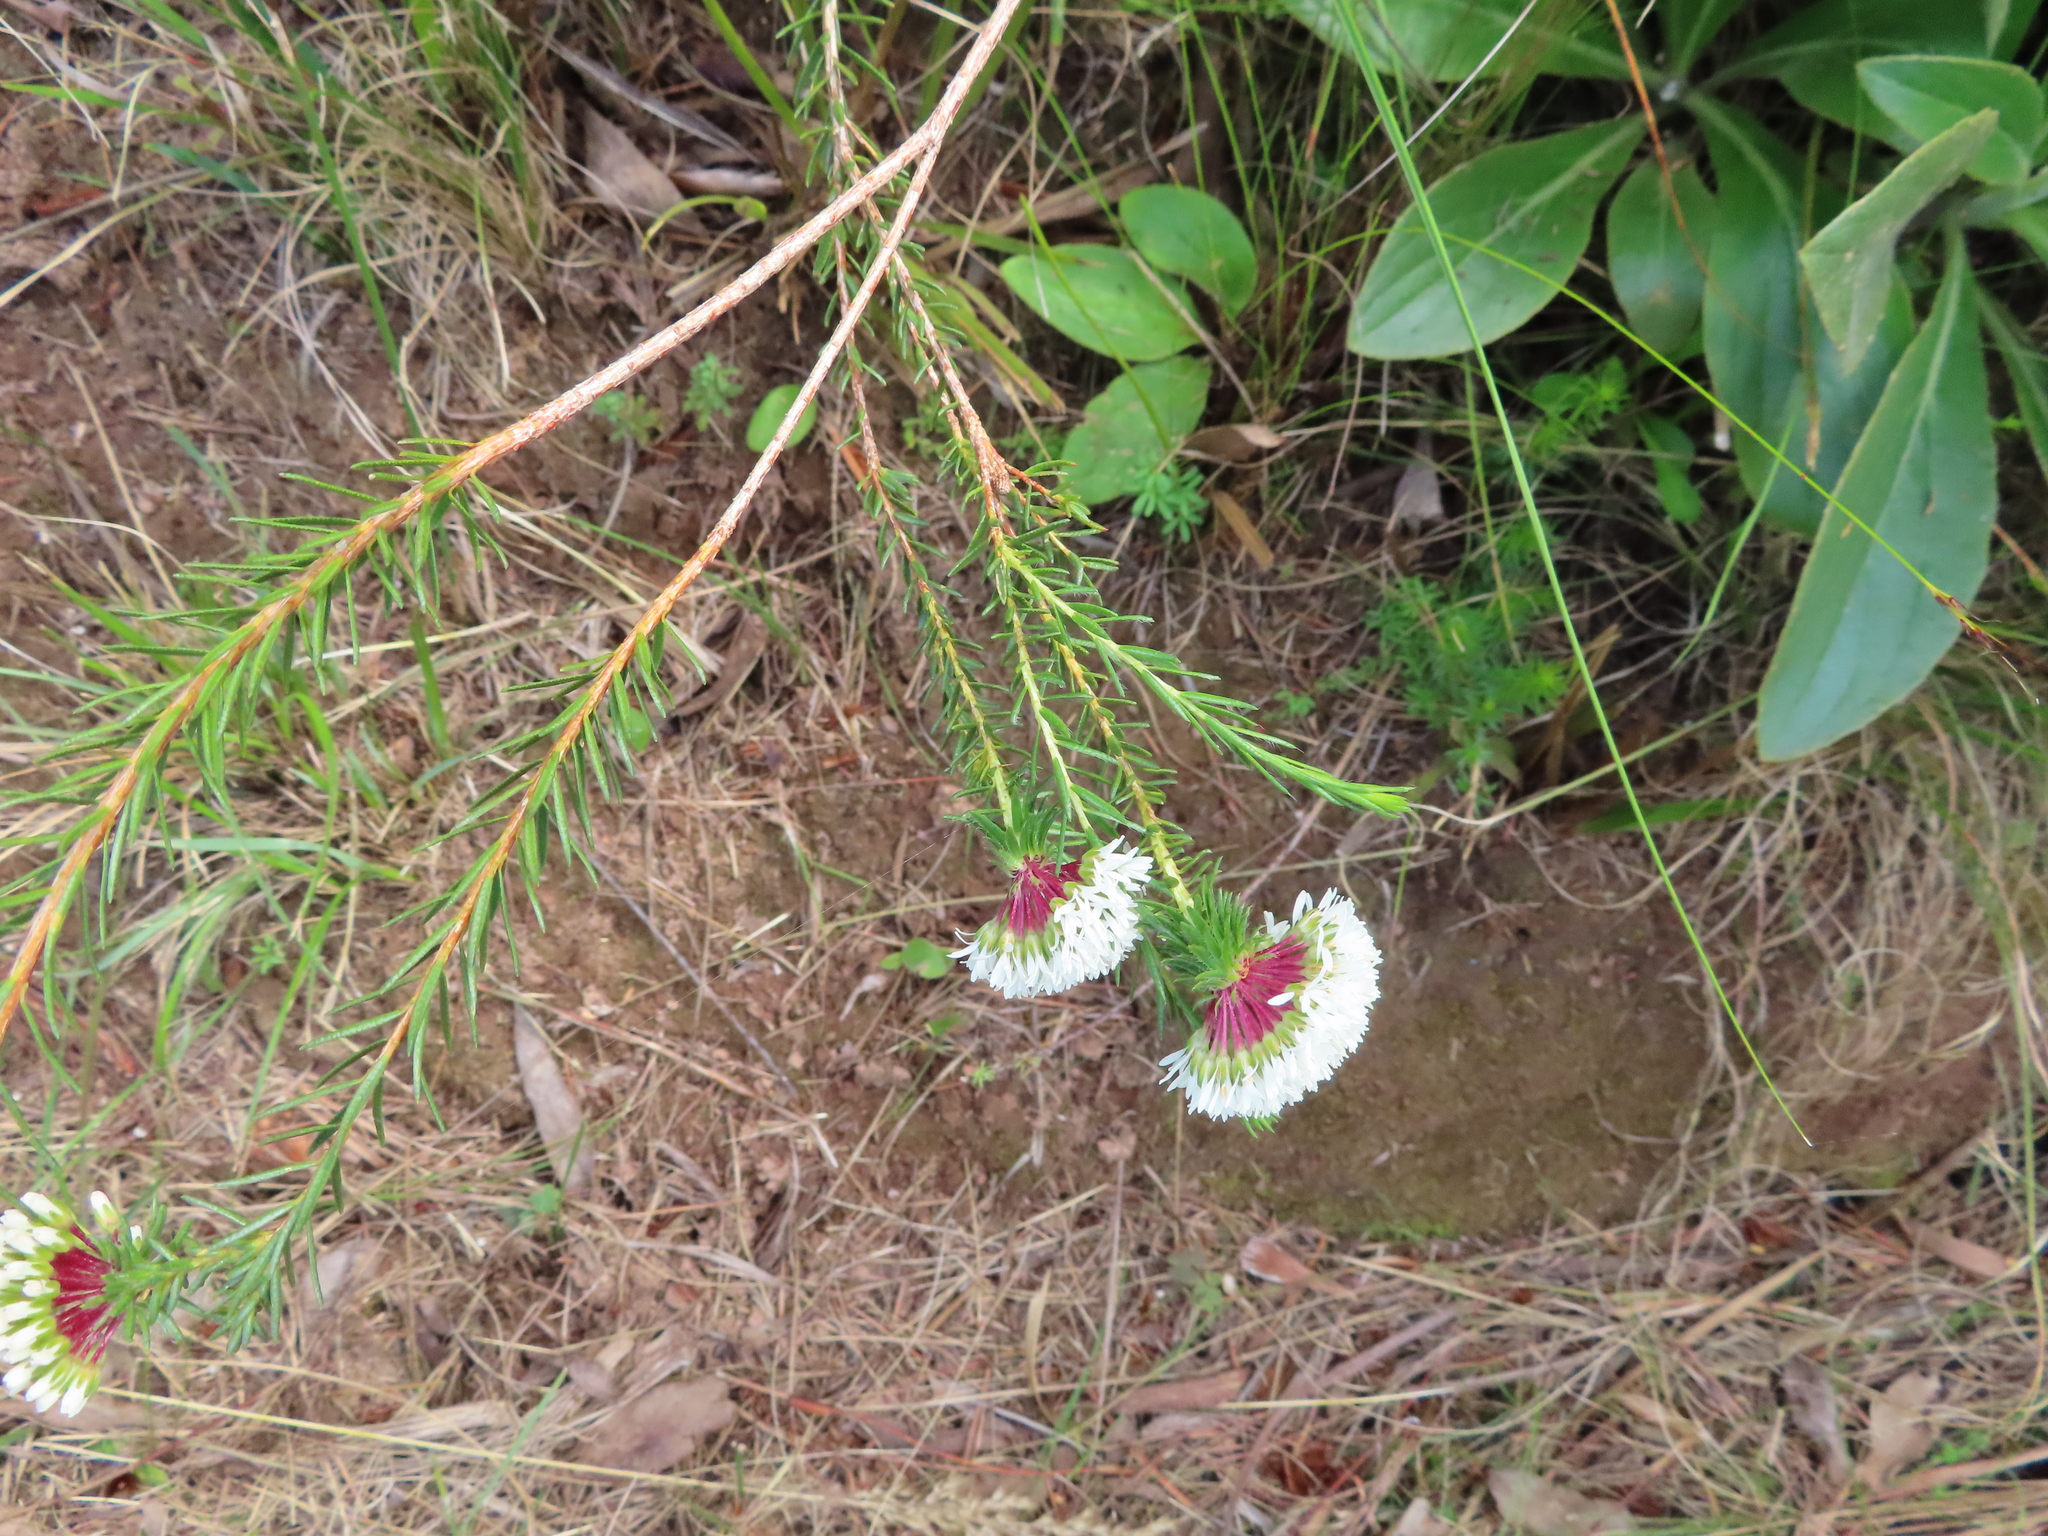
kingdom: Plantae
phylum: Tracheophyta
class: Magnoliopsida
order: Sapindales
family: Rutaceae
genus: Agathosma
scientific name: Agathosma bifida
